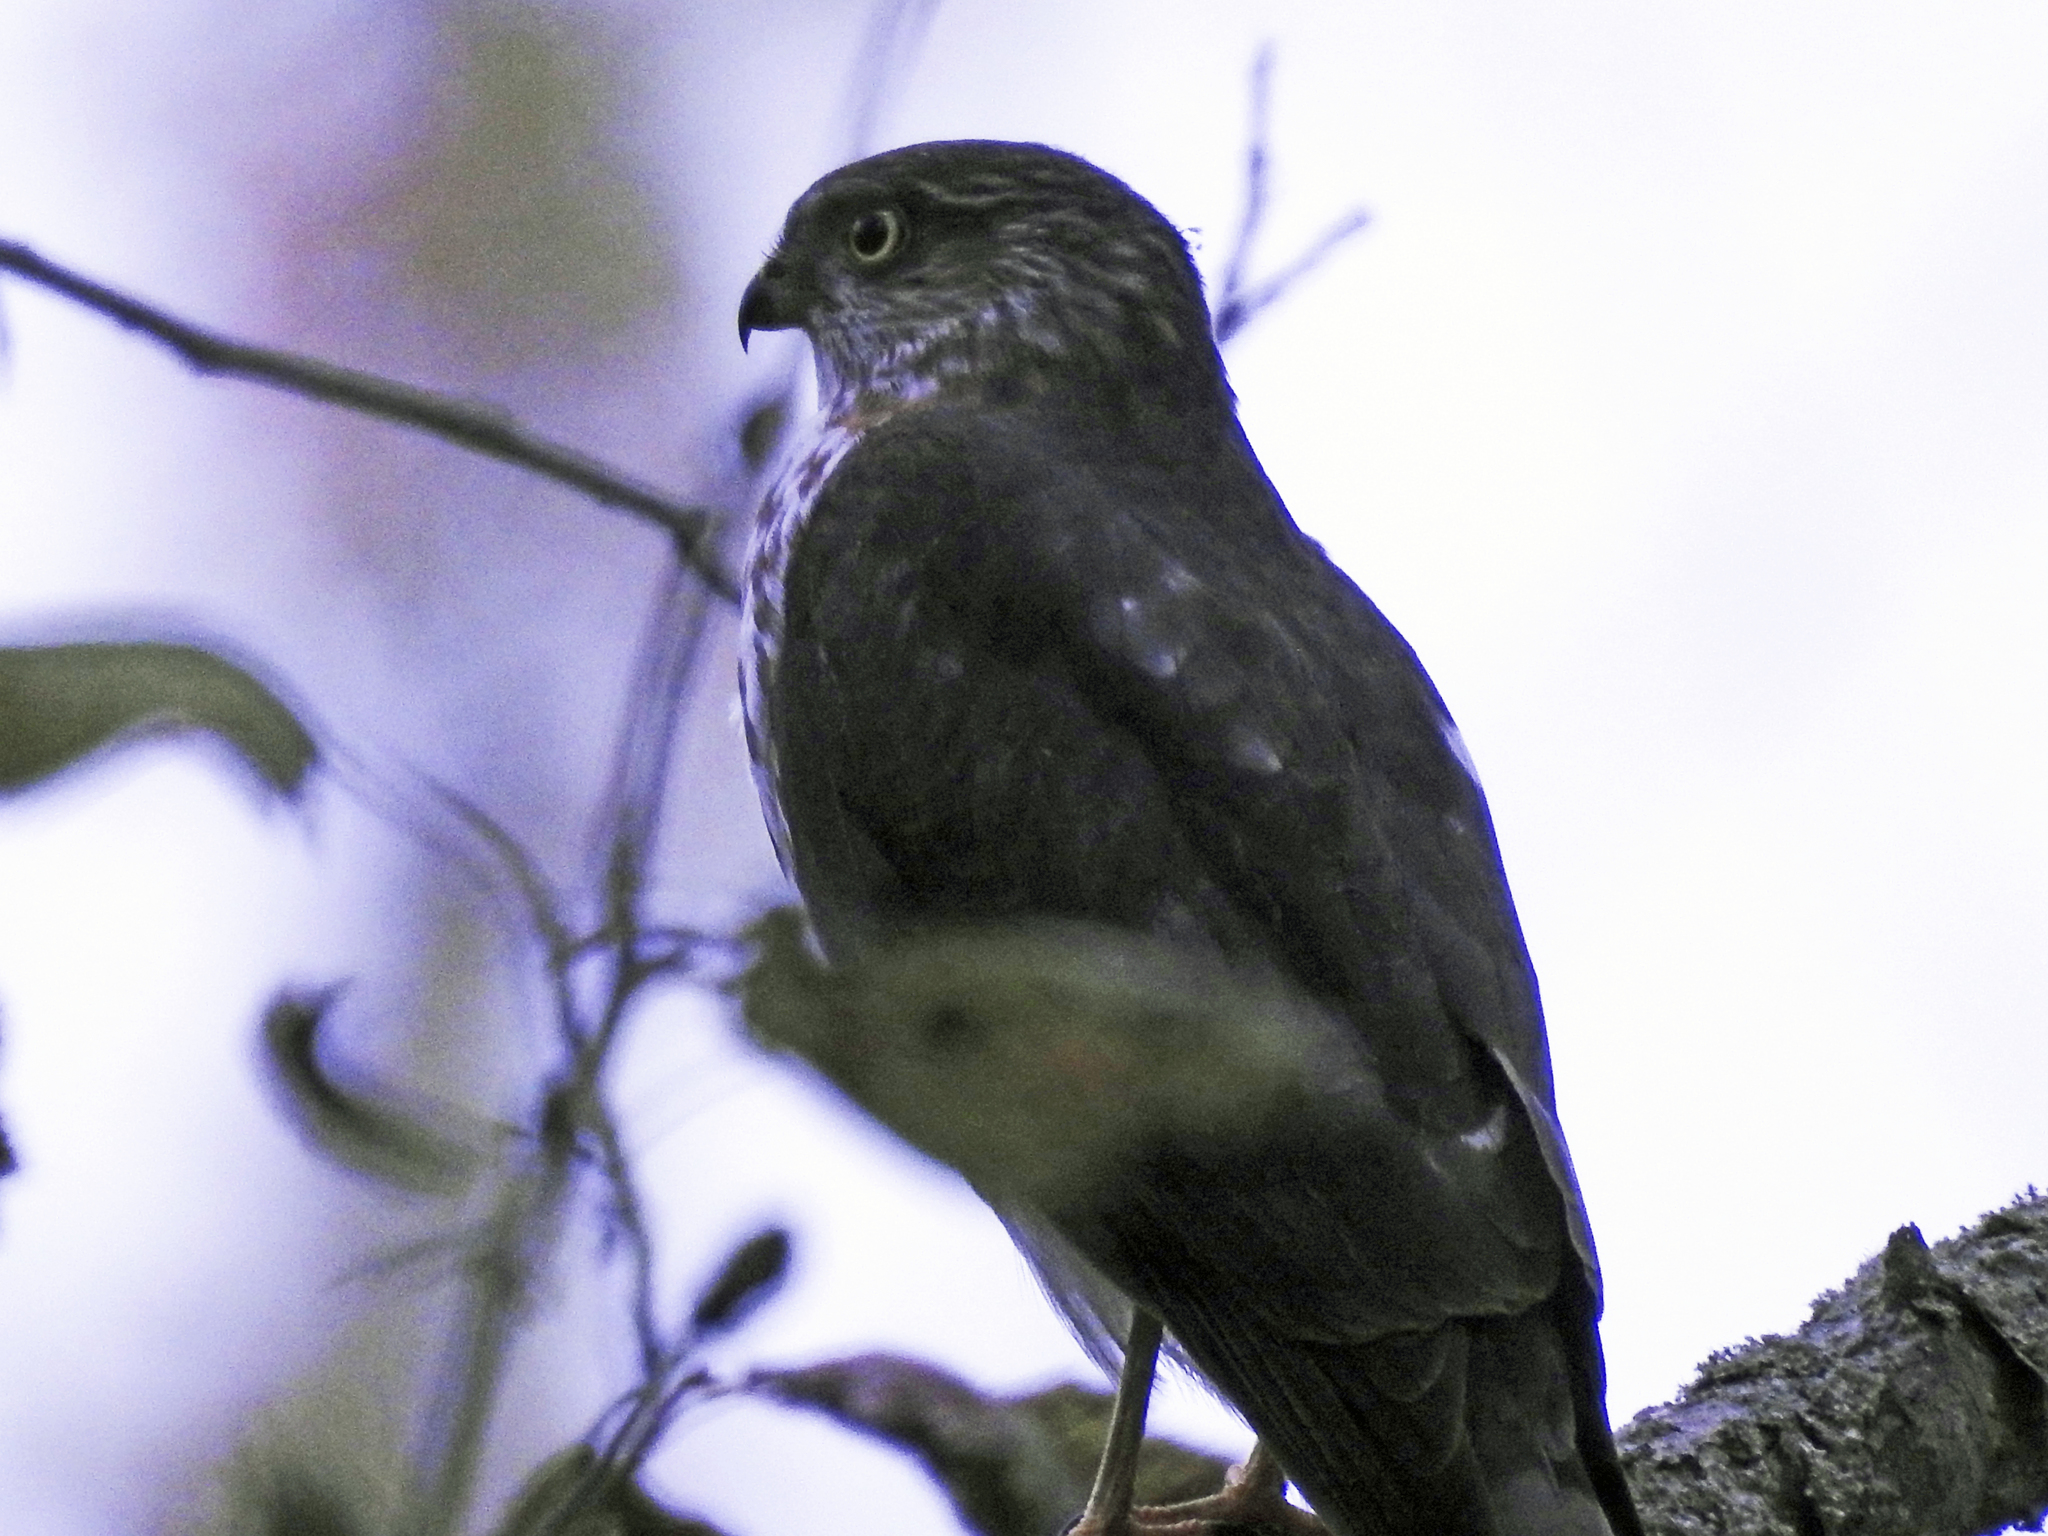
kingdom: Animalia
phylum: Chordata
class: Aves
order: Accipitriformes
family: Accipitridae
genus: Accipiter
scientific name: Accipiter striatus
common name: Sharp-shinned hawk
